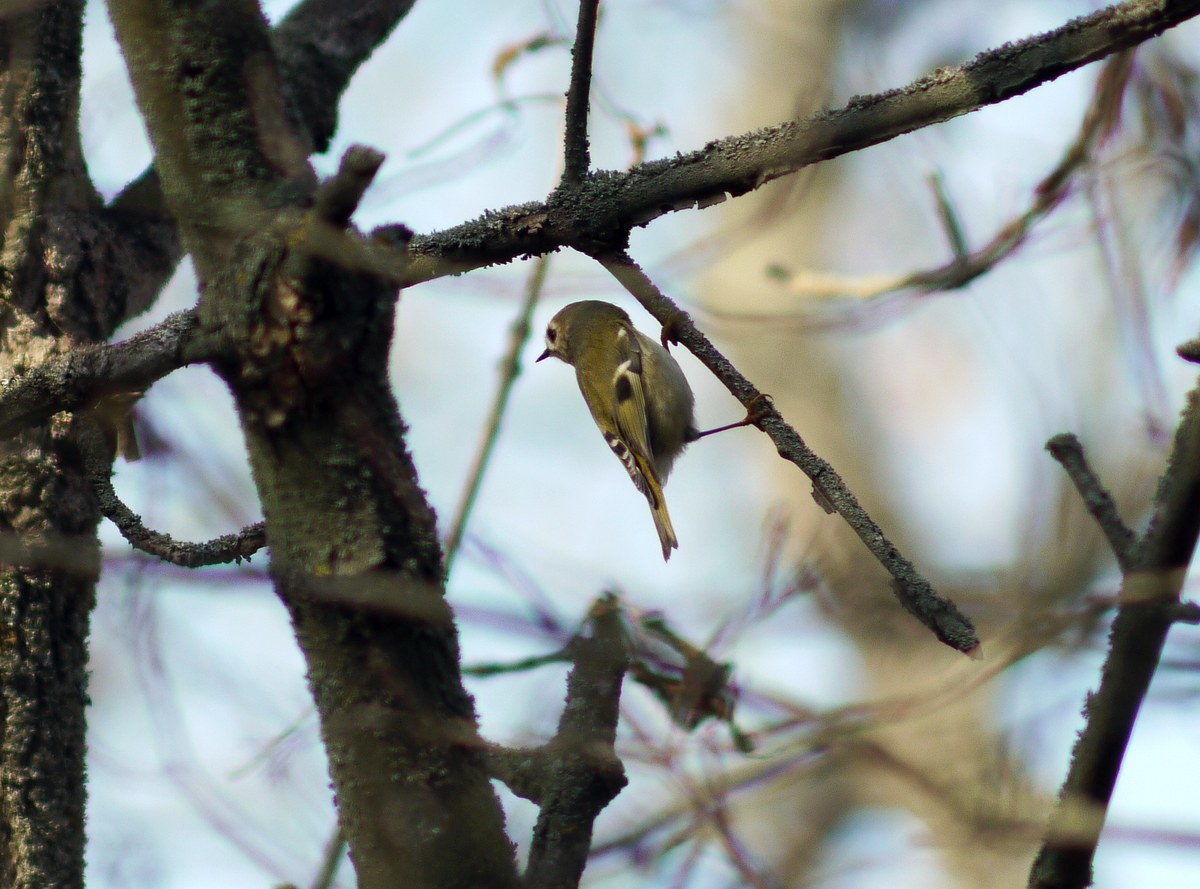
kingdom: Animalia
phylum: Chordata
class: Aves
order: Passeriformes
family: Regulidae
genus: Regulus
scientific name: Regulus regulus
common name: Goldcrest
